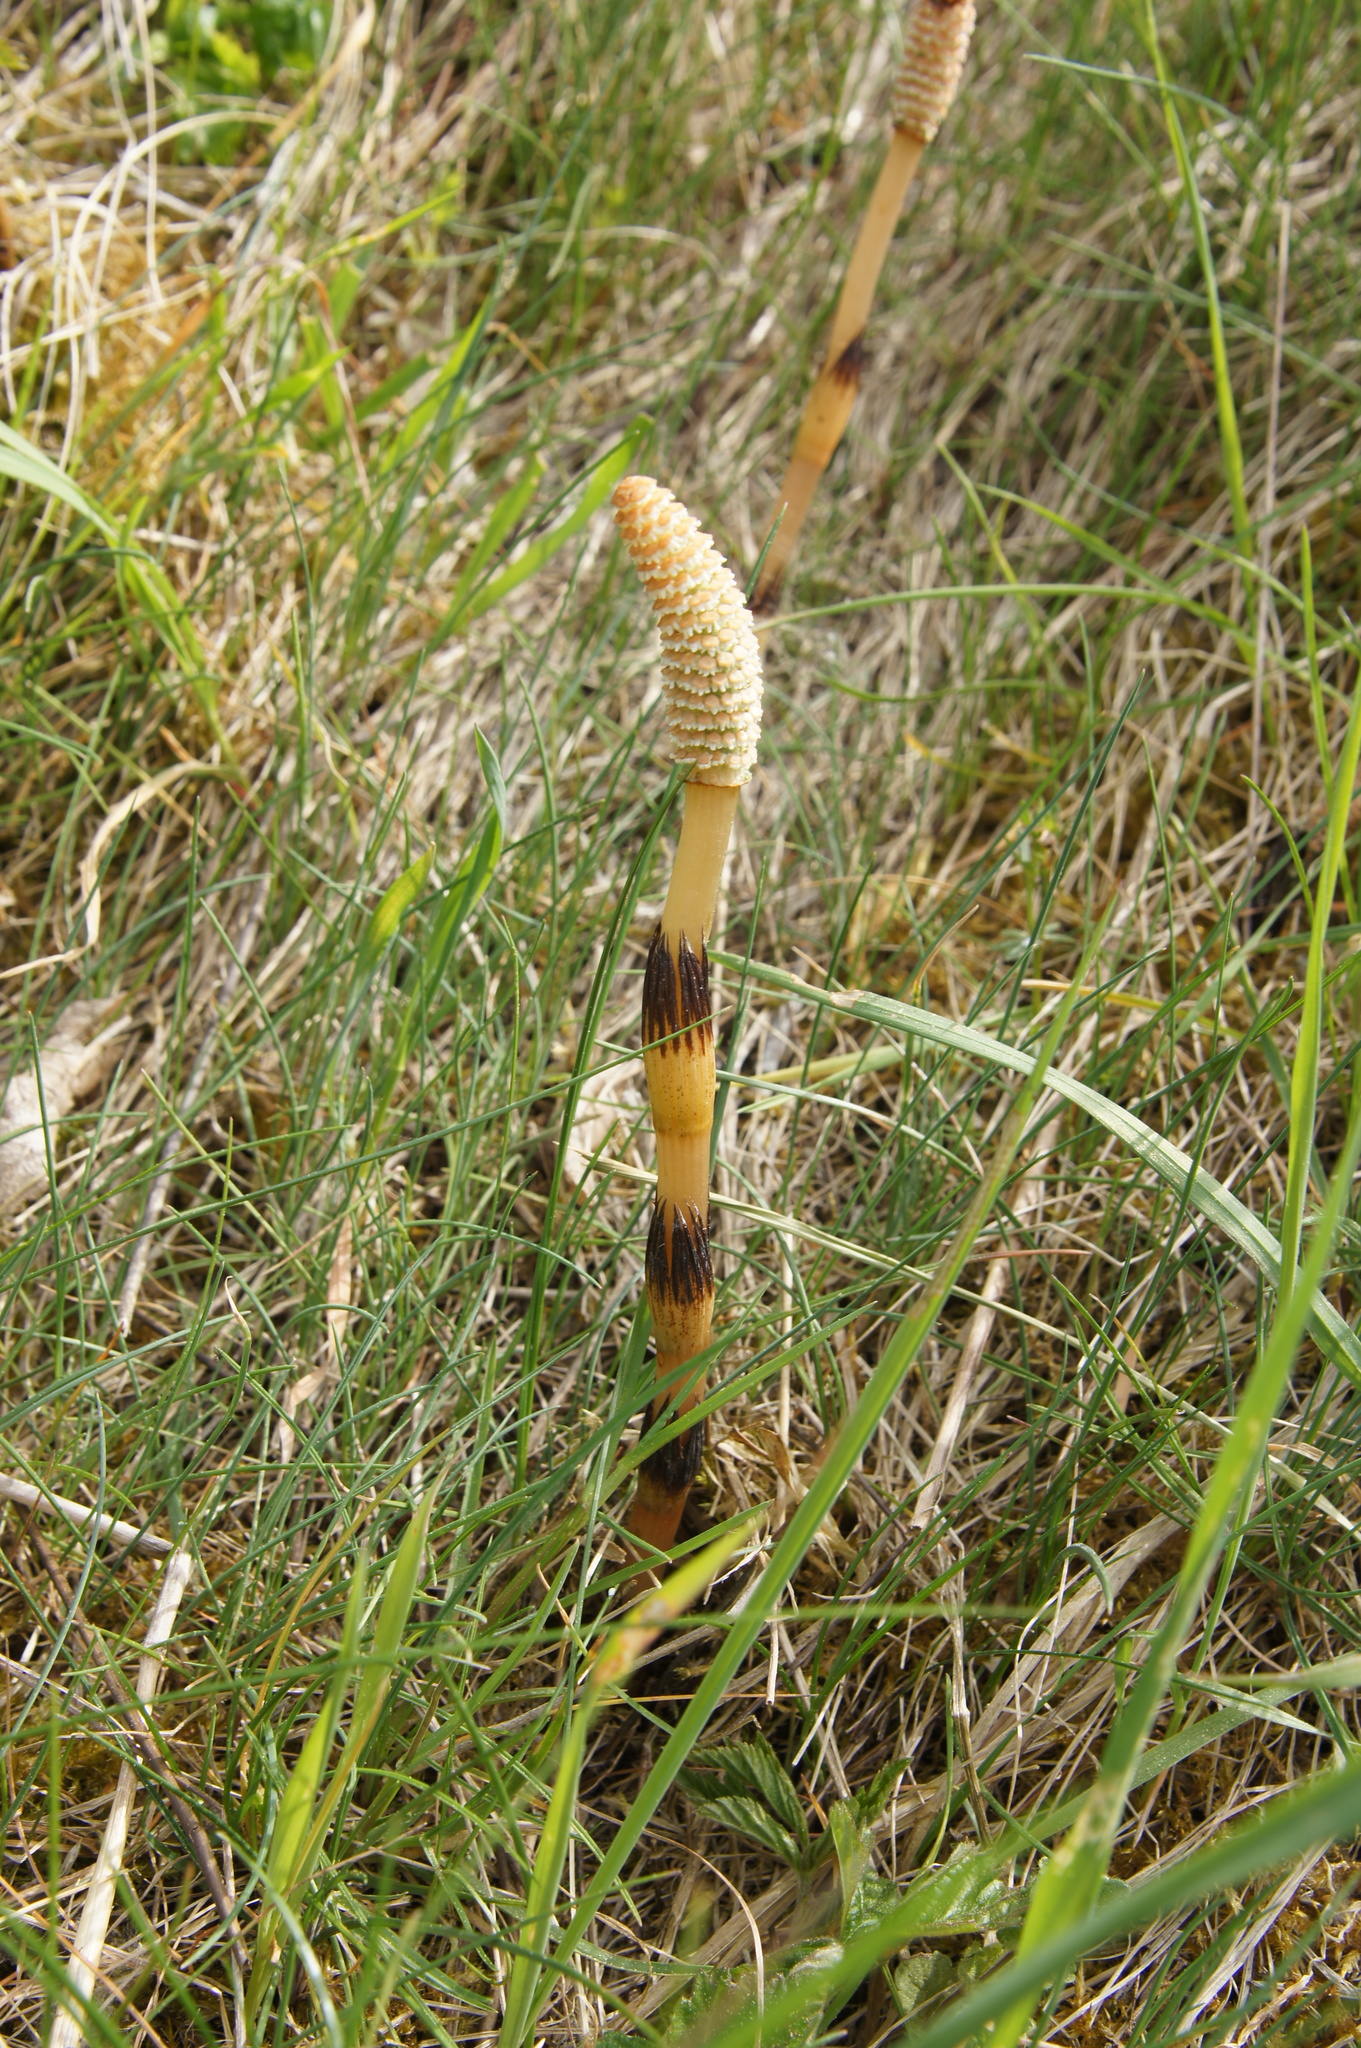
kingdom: Plantae
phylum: Tracheophyta
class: Polypodiopsida
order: Equisetales
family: Equisetaceae
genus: Equisetum
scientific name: Equisetum arvense
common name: Field horsetail
